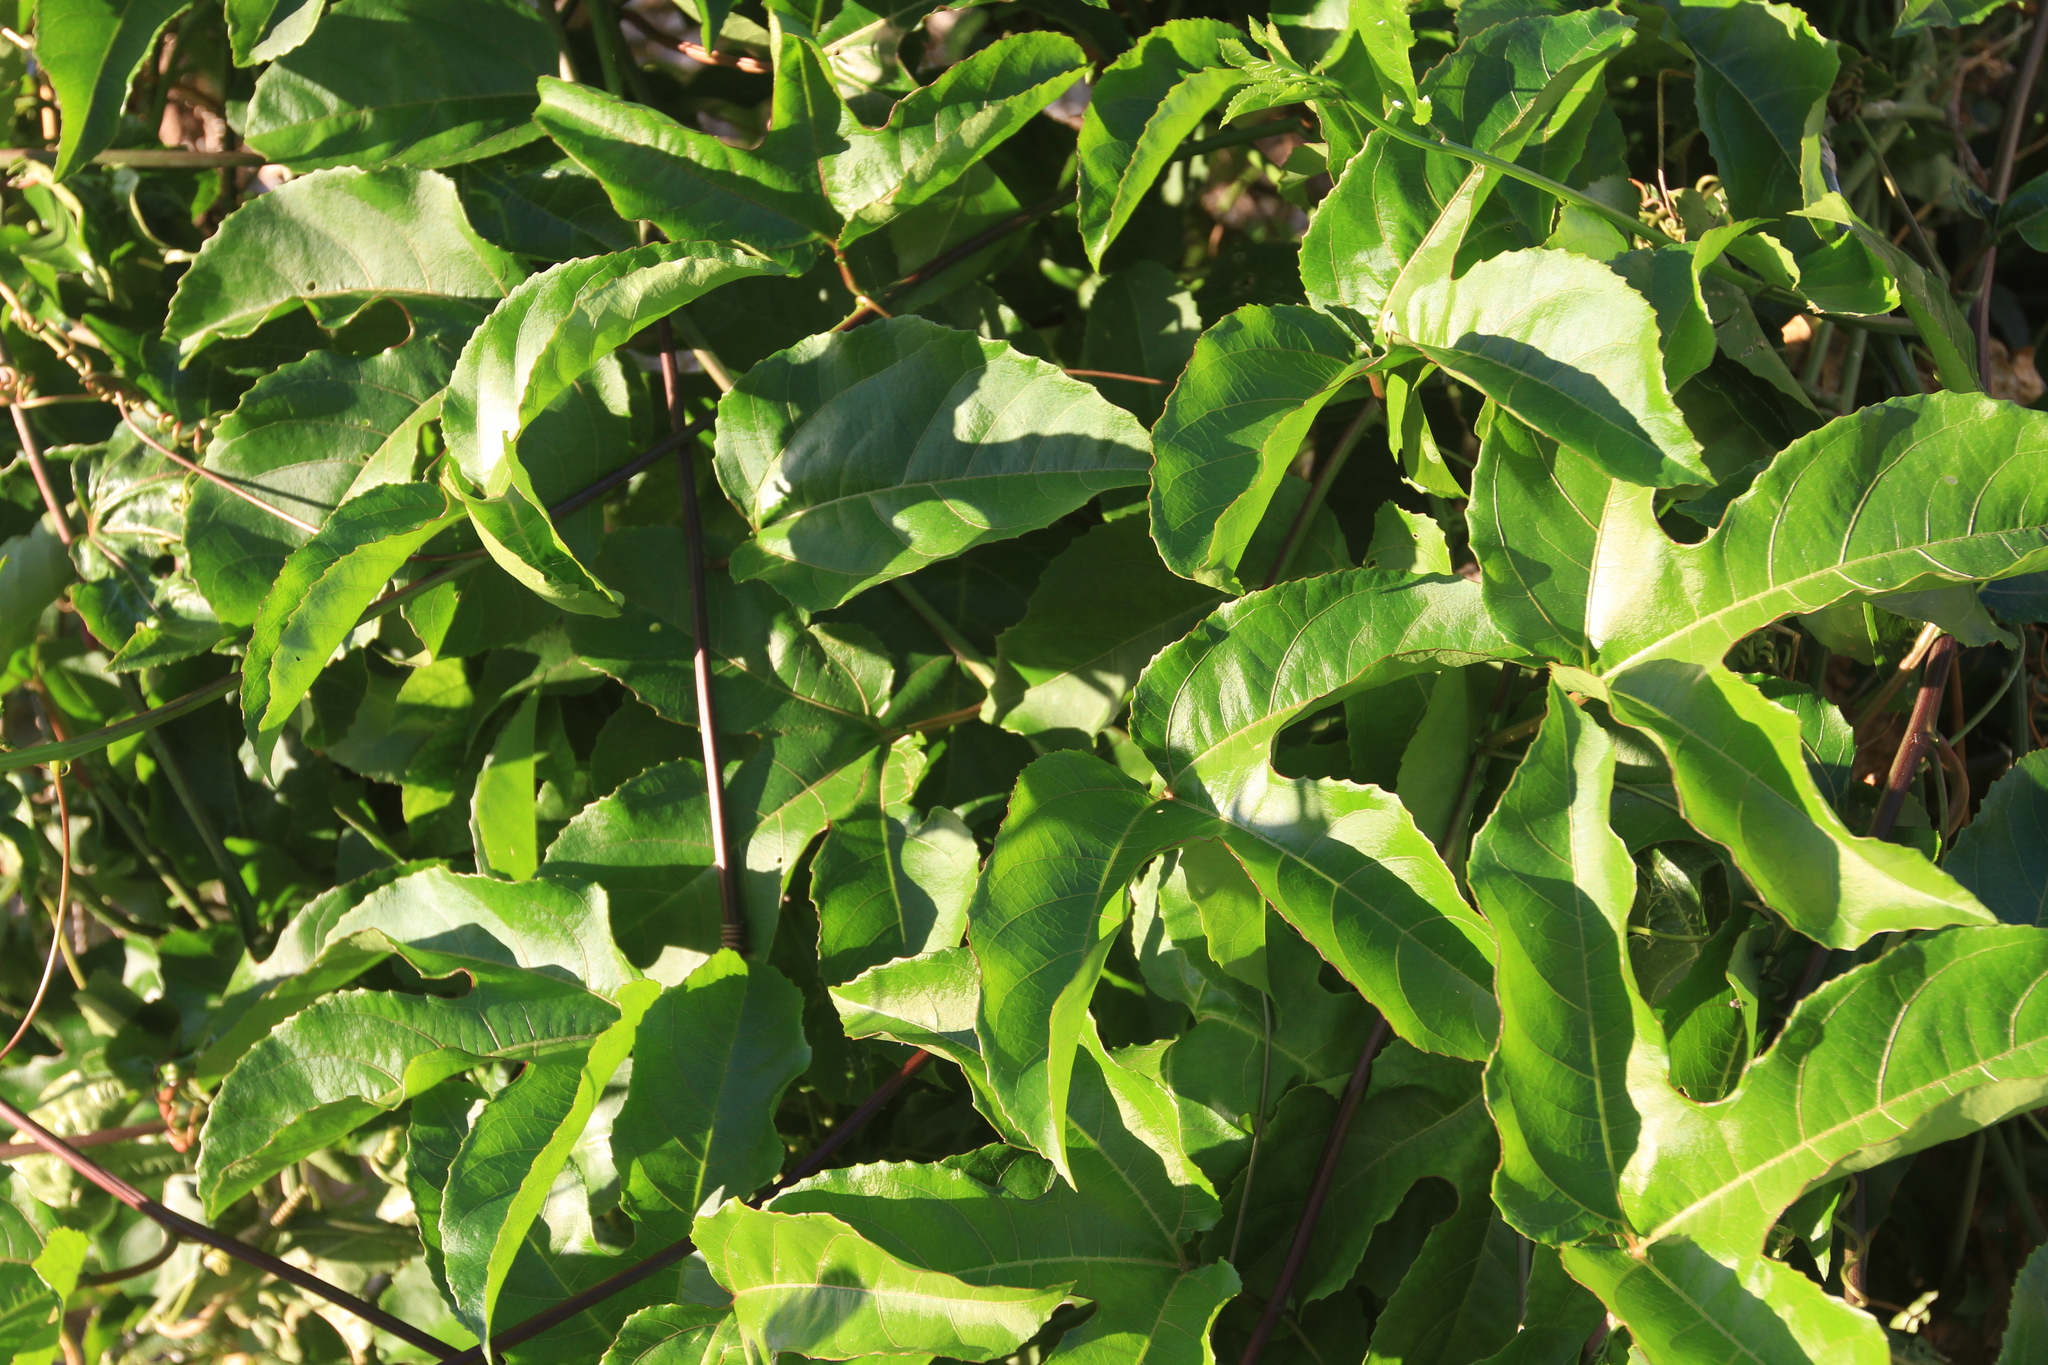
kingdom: Plantae
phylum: Tracheophyta
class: Magnoliopsida
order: Malpighiales
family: Passifloraceae
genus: Passiflora
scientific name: Passiflora edulis
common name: Purple granadilla
